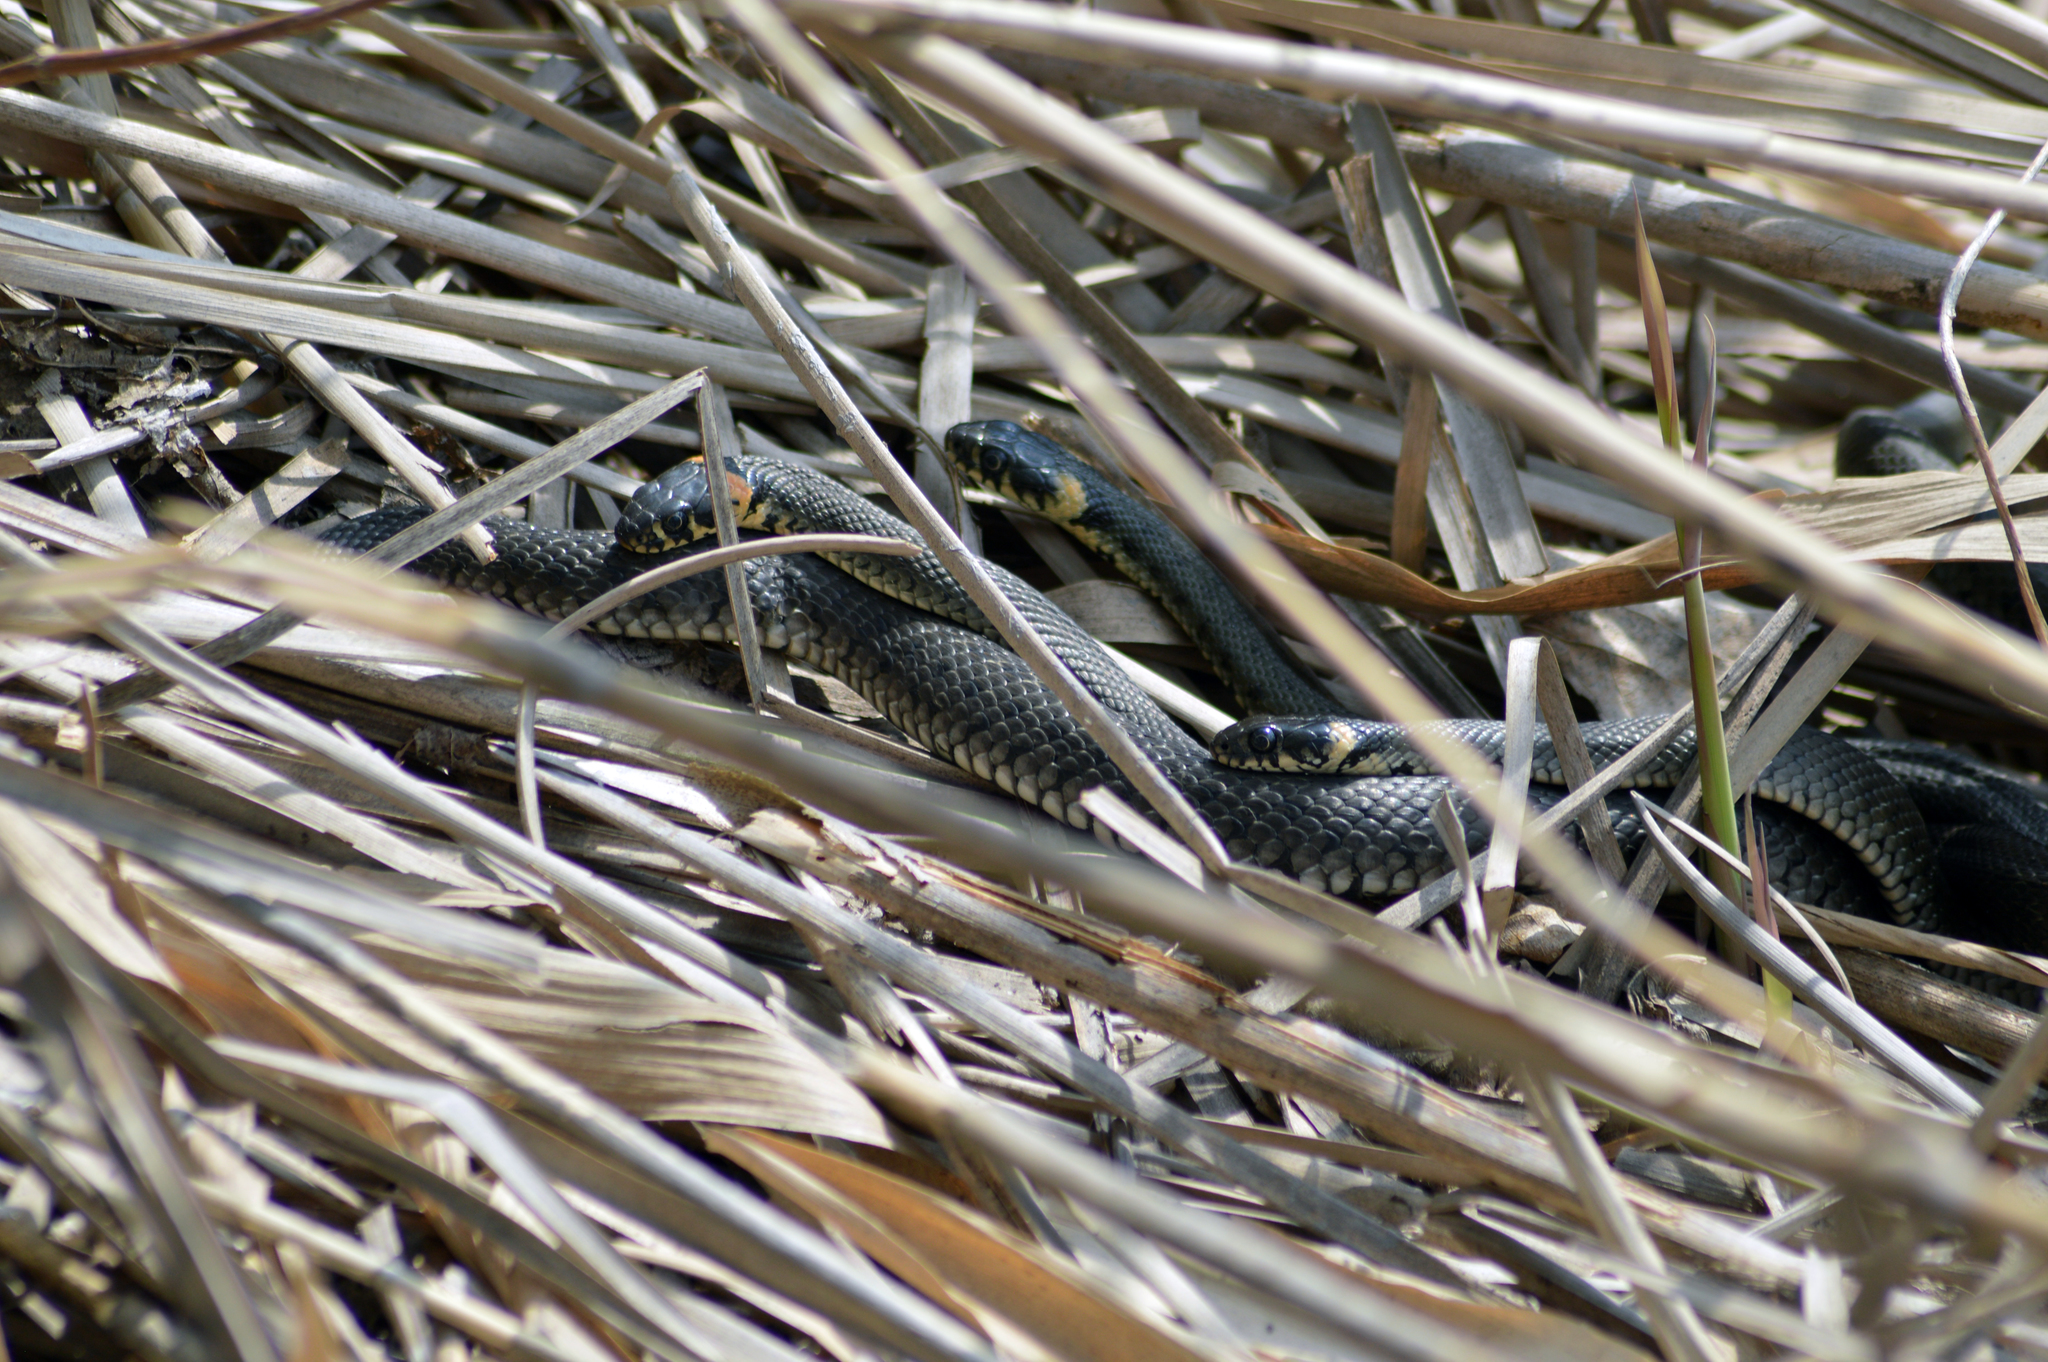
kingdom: Animalia
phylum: Chordata
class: Squamata
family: Colubridae
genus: Natrix
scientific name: Natrix natrix
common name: Grass snake
